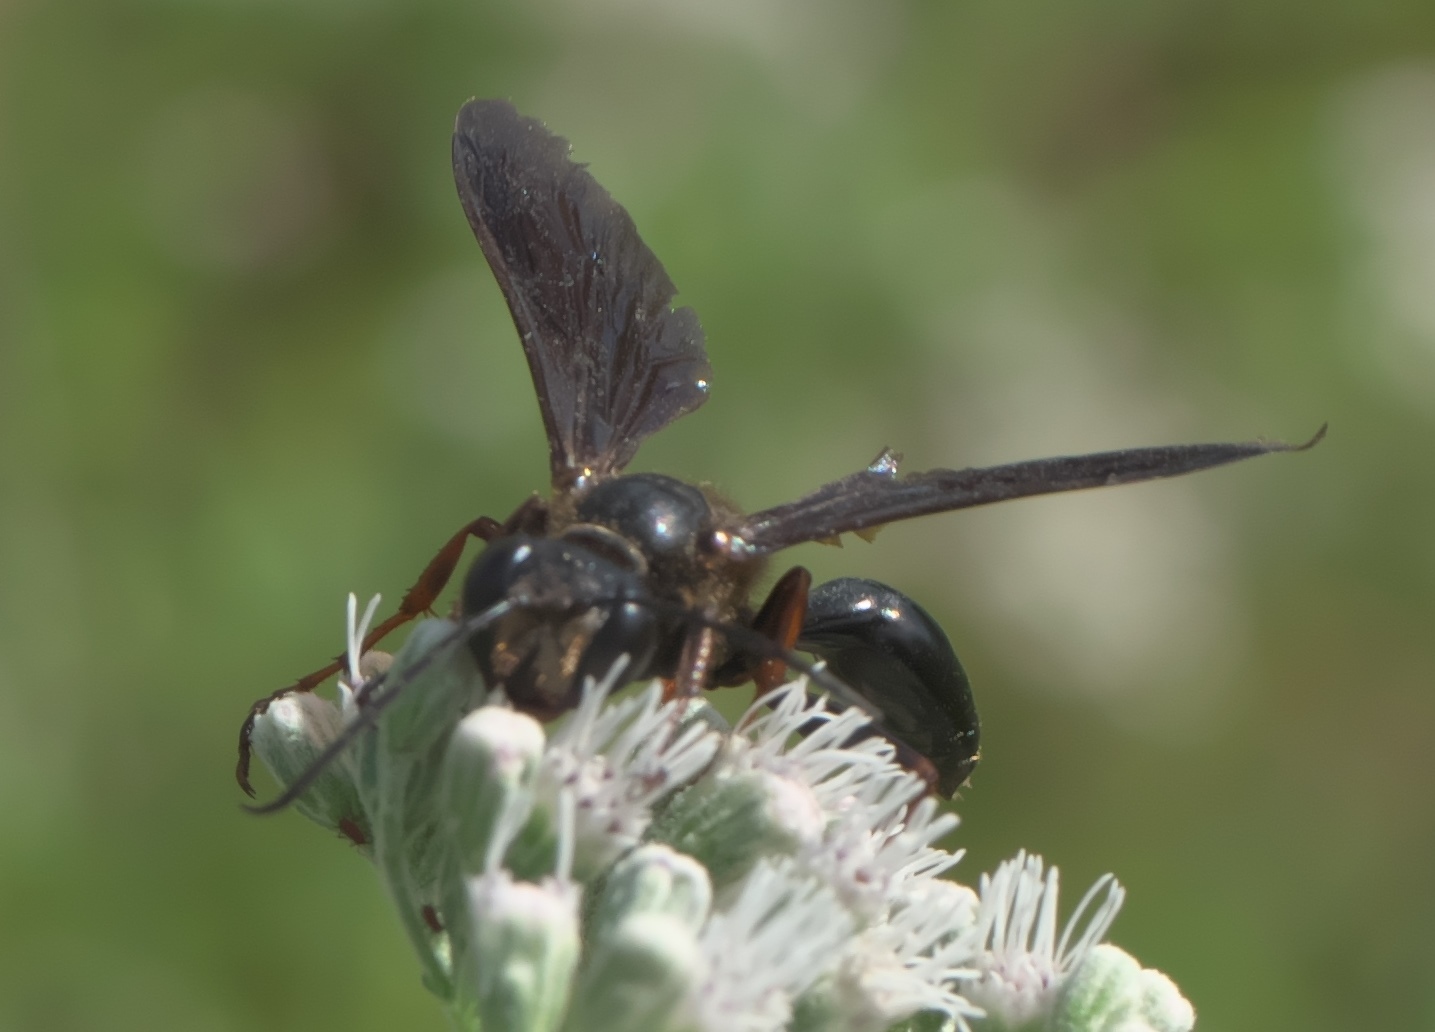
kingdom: Animalia
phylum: Arthropoda
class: Insecta
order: Hymenoptera
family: Sphecidae
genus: Isodontia
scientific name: Isodontia auripes
